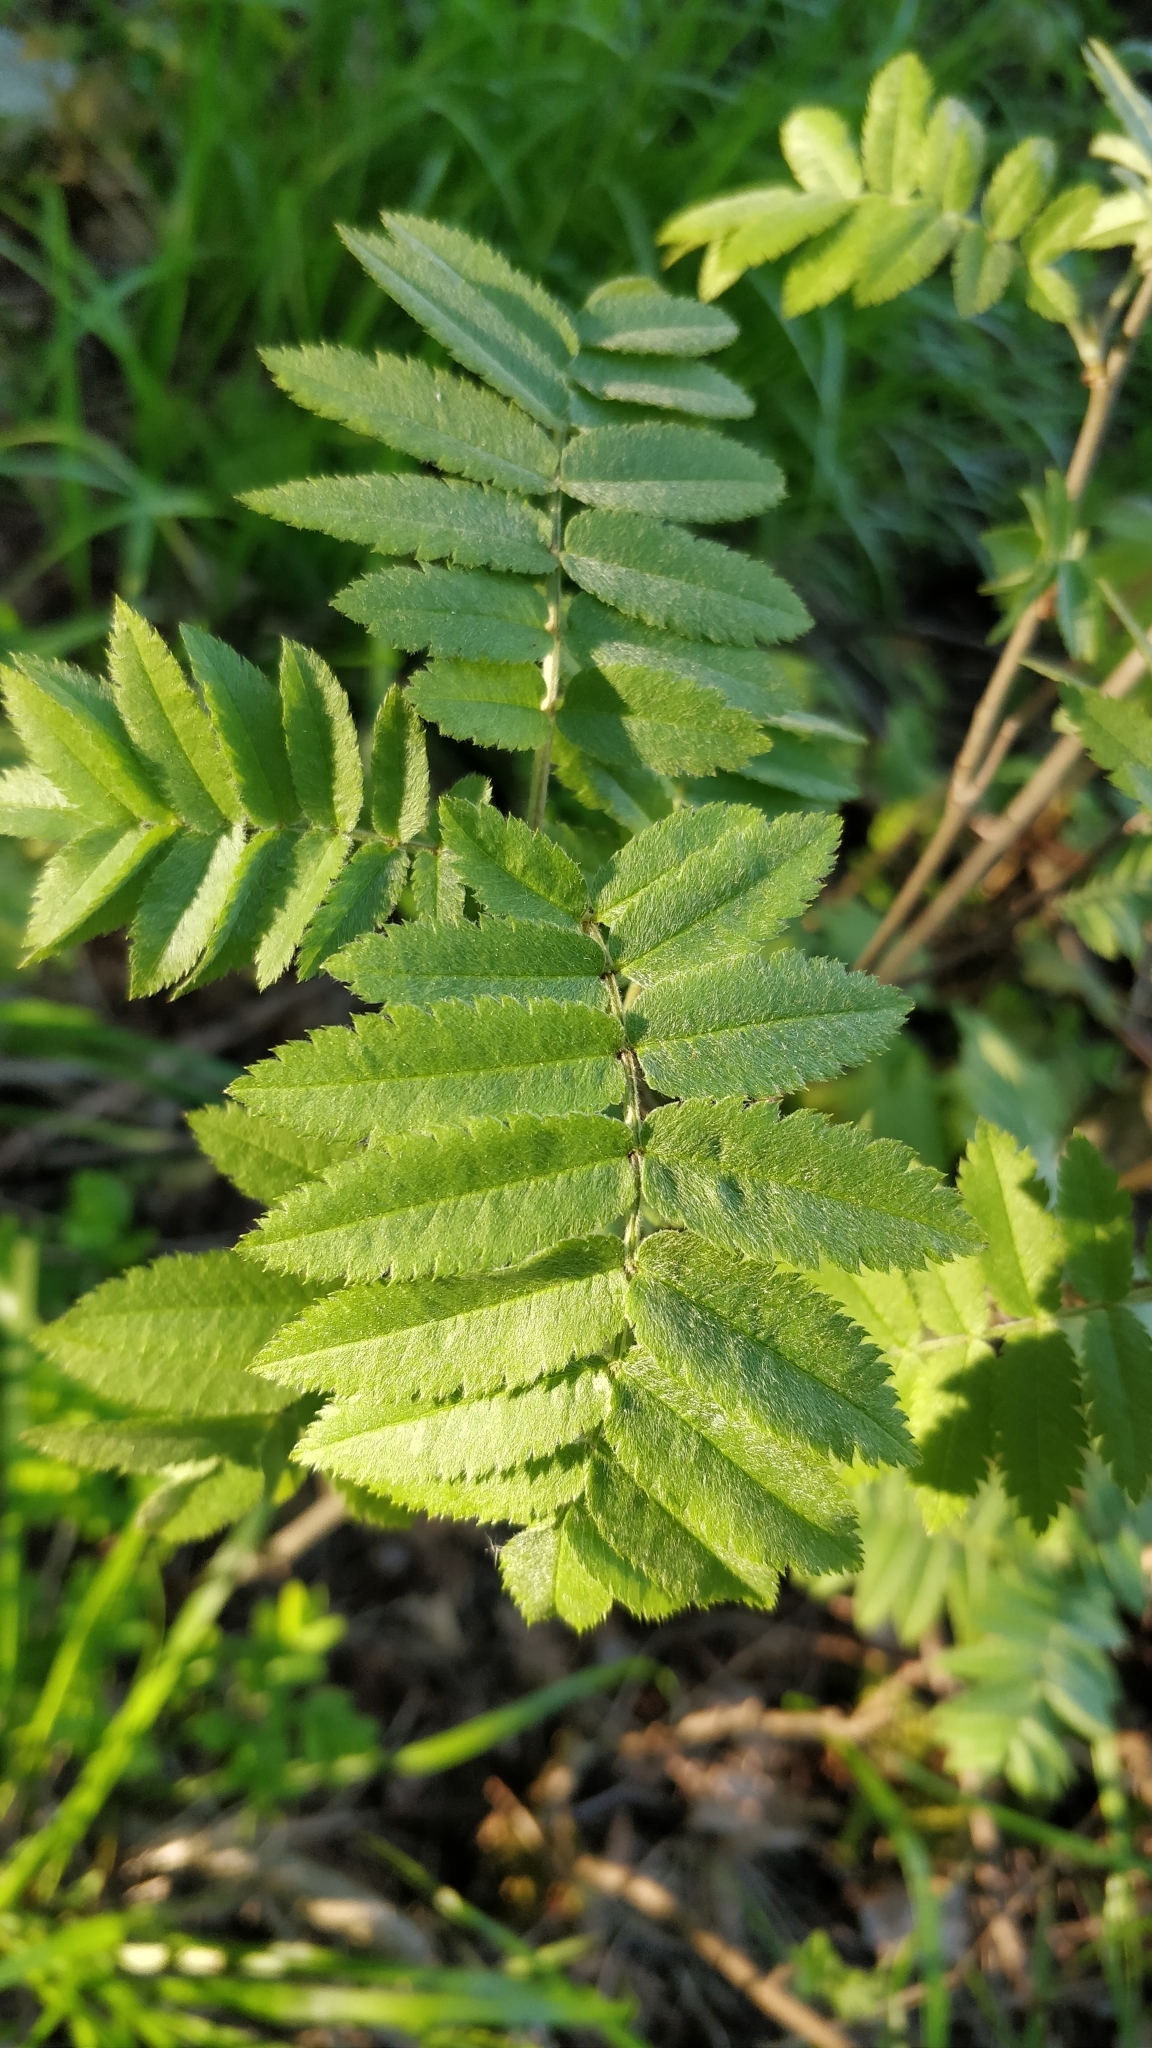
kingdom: Plantae
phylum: Tracheophyta
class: Magnoliopsida
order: Rosales
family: Rosaceae
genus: Sorbus
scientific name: Sorbus aucuparia
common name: Rowan
